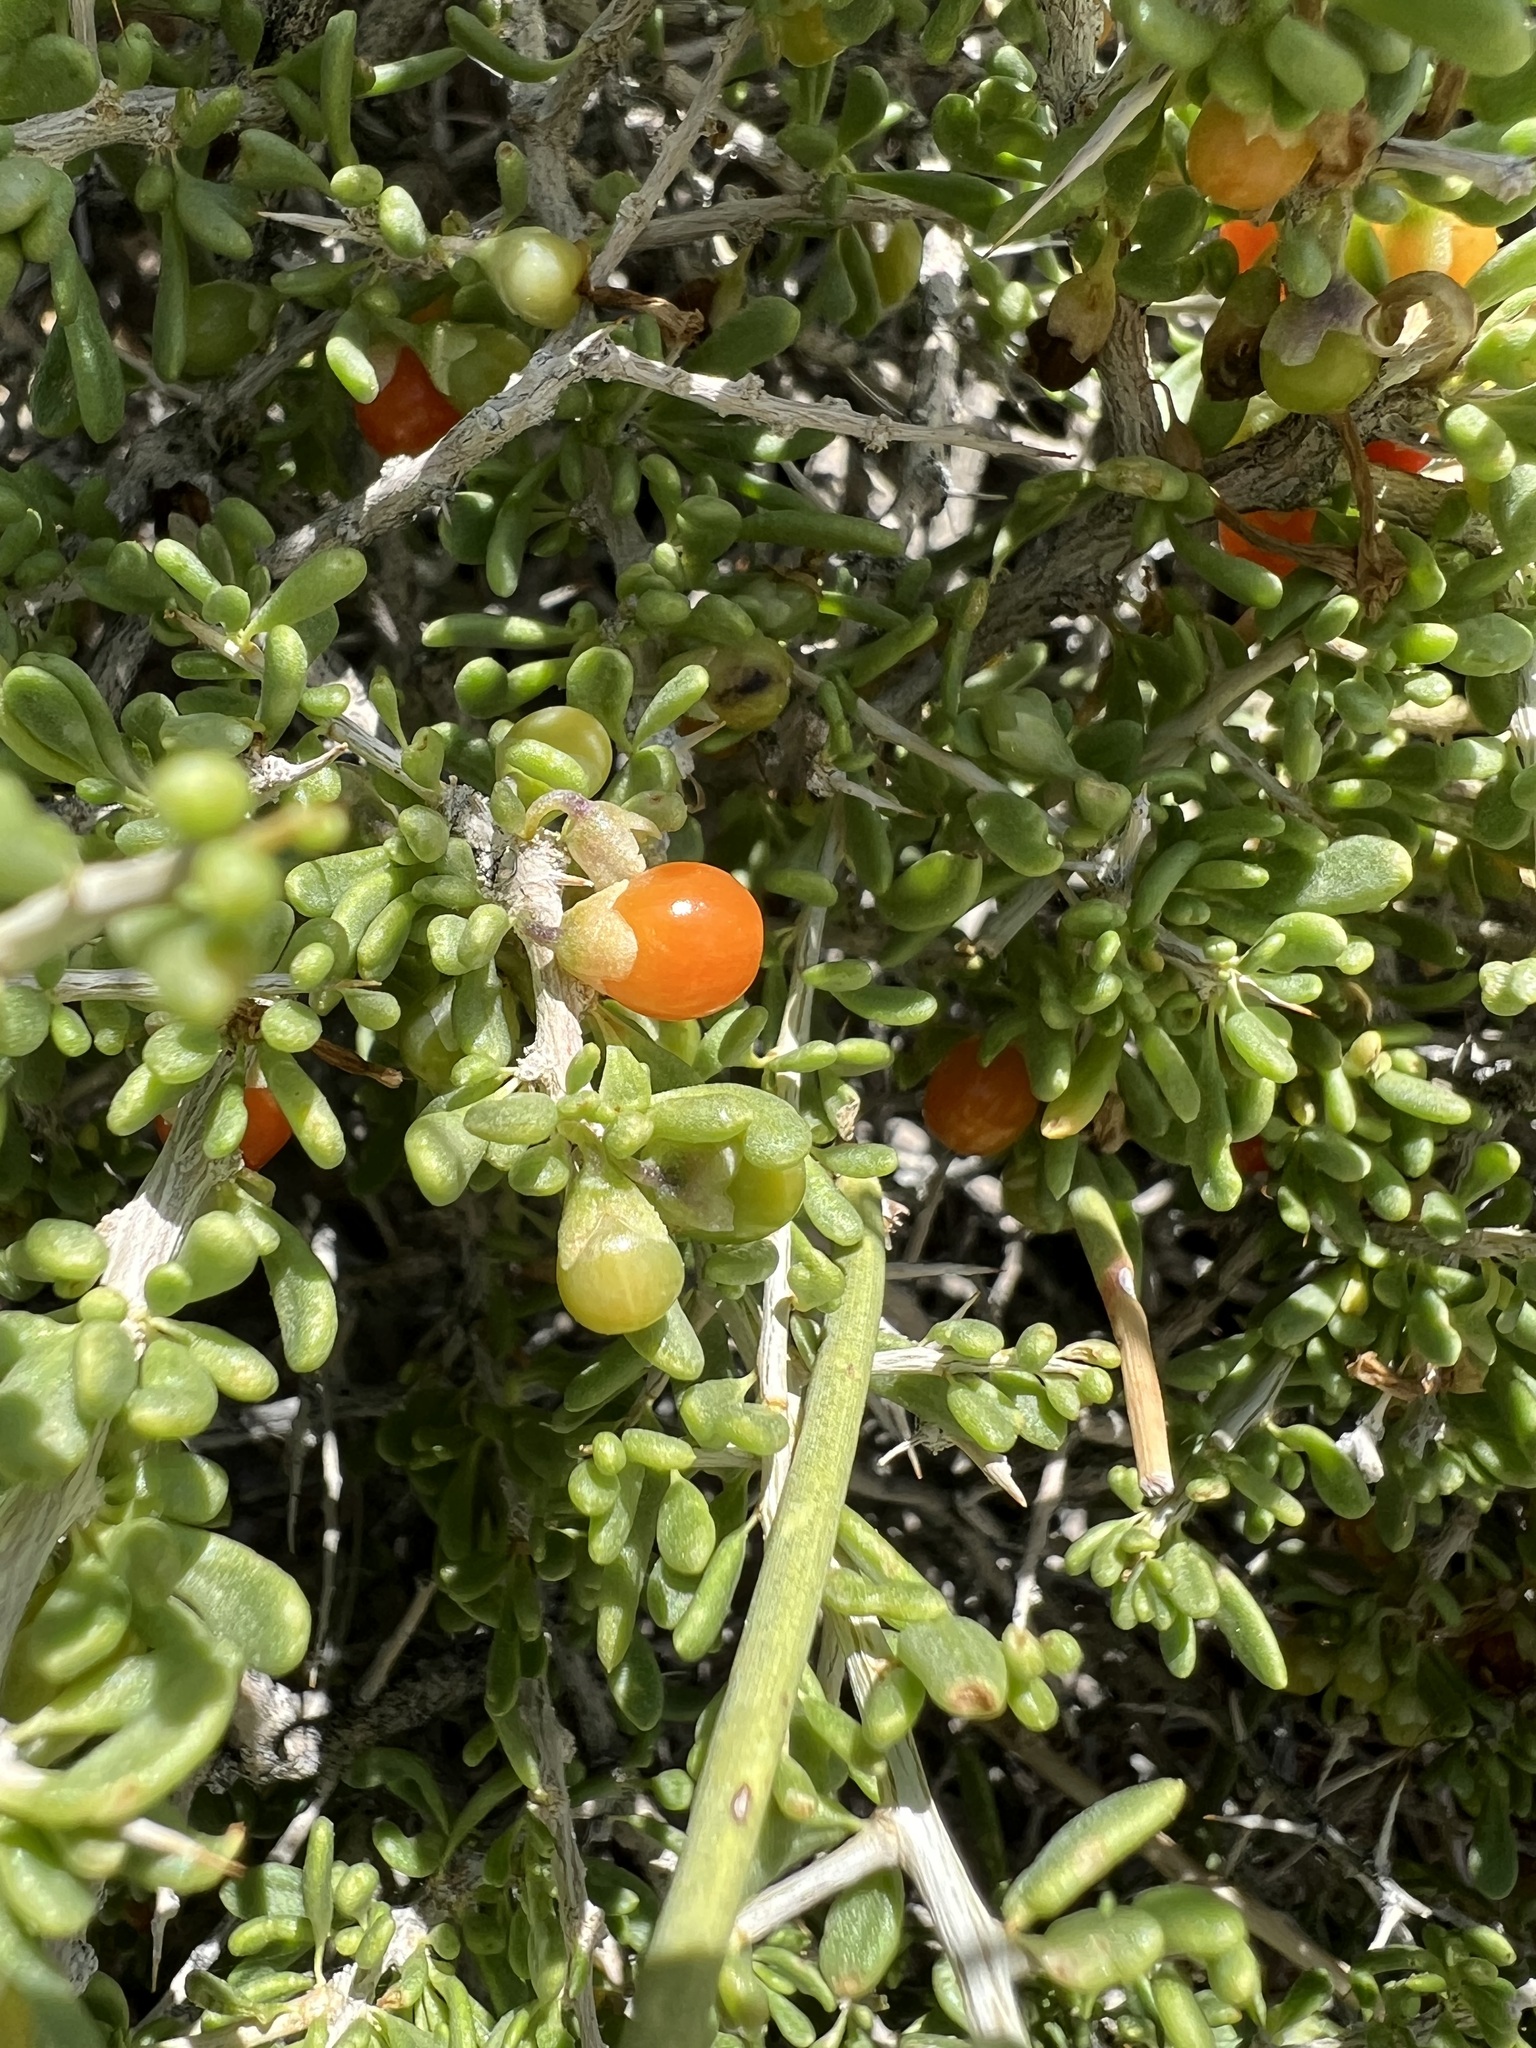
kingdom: Plantae
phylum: Tracheophyta
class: Magnoliopsida
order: Solanales
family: Solanaceae
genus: Lycium
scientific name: Lycium andersonii
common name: Water-jacket
